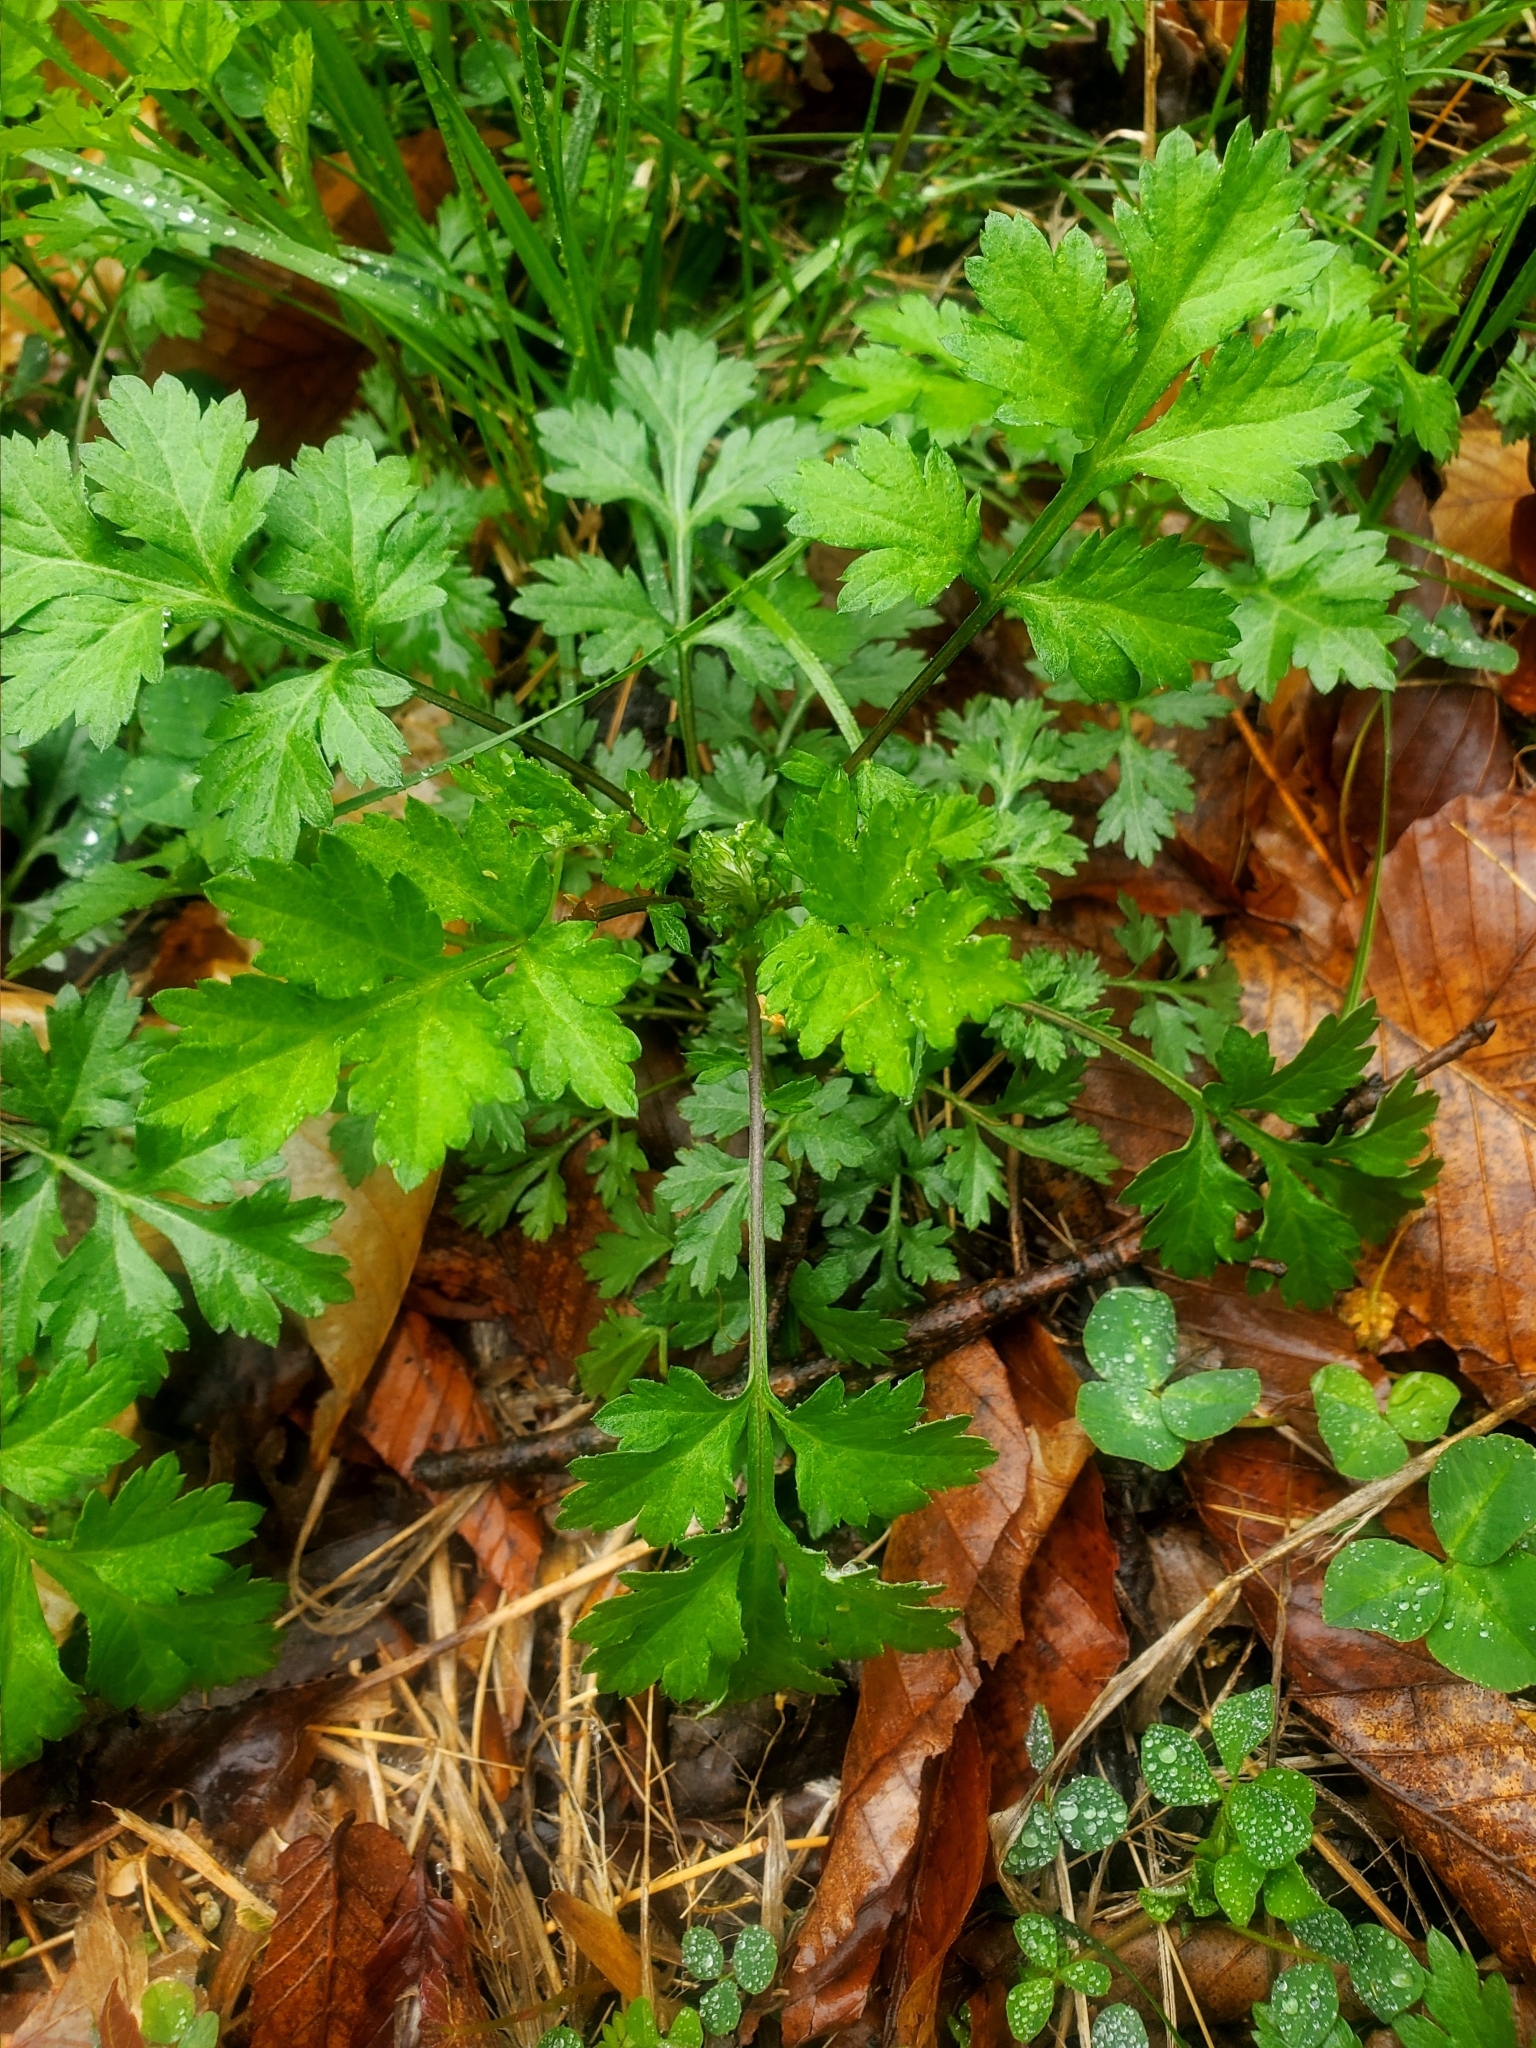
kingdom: Plantae
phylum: Tracheophyta
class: Magnoliopsida
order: Asterales
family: Asteraceae
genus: Artemisia
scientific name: Artemisia vulgaris
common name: Mugwort
